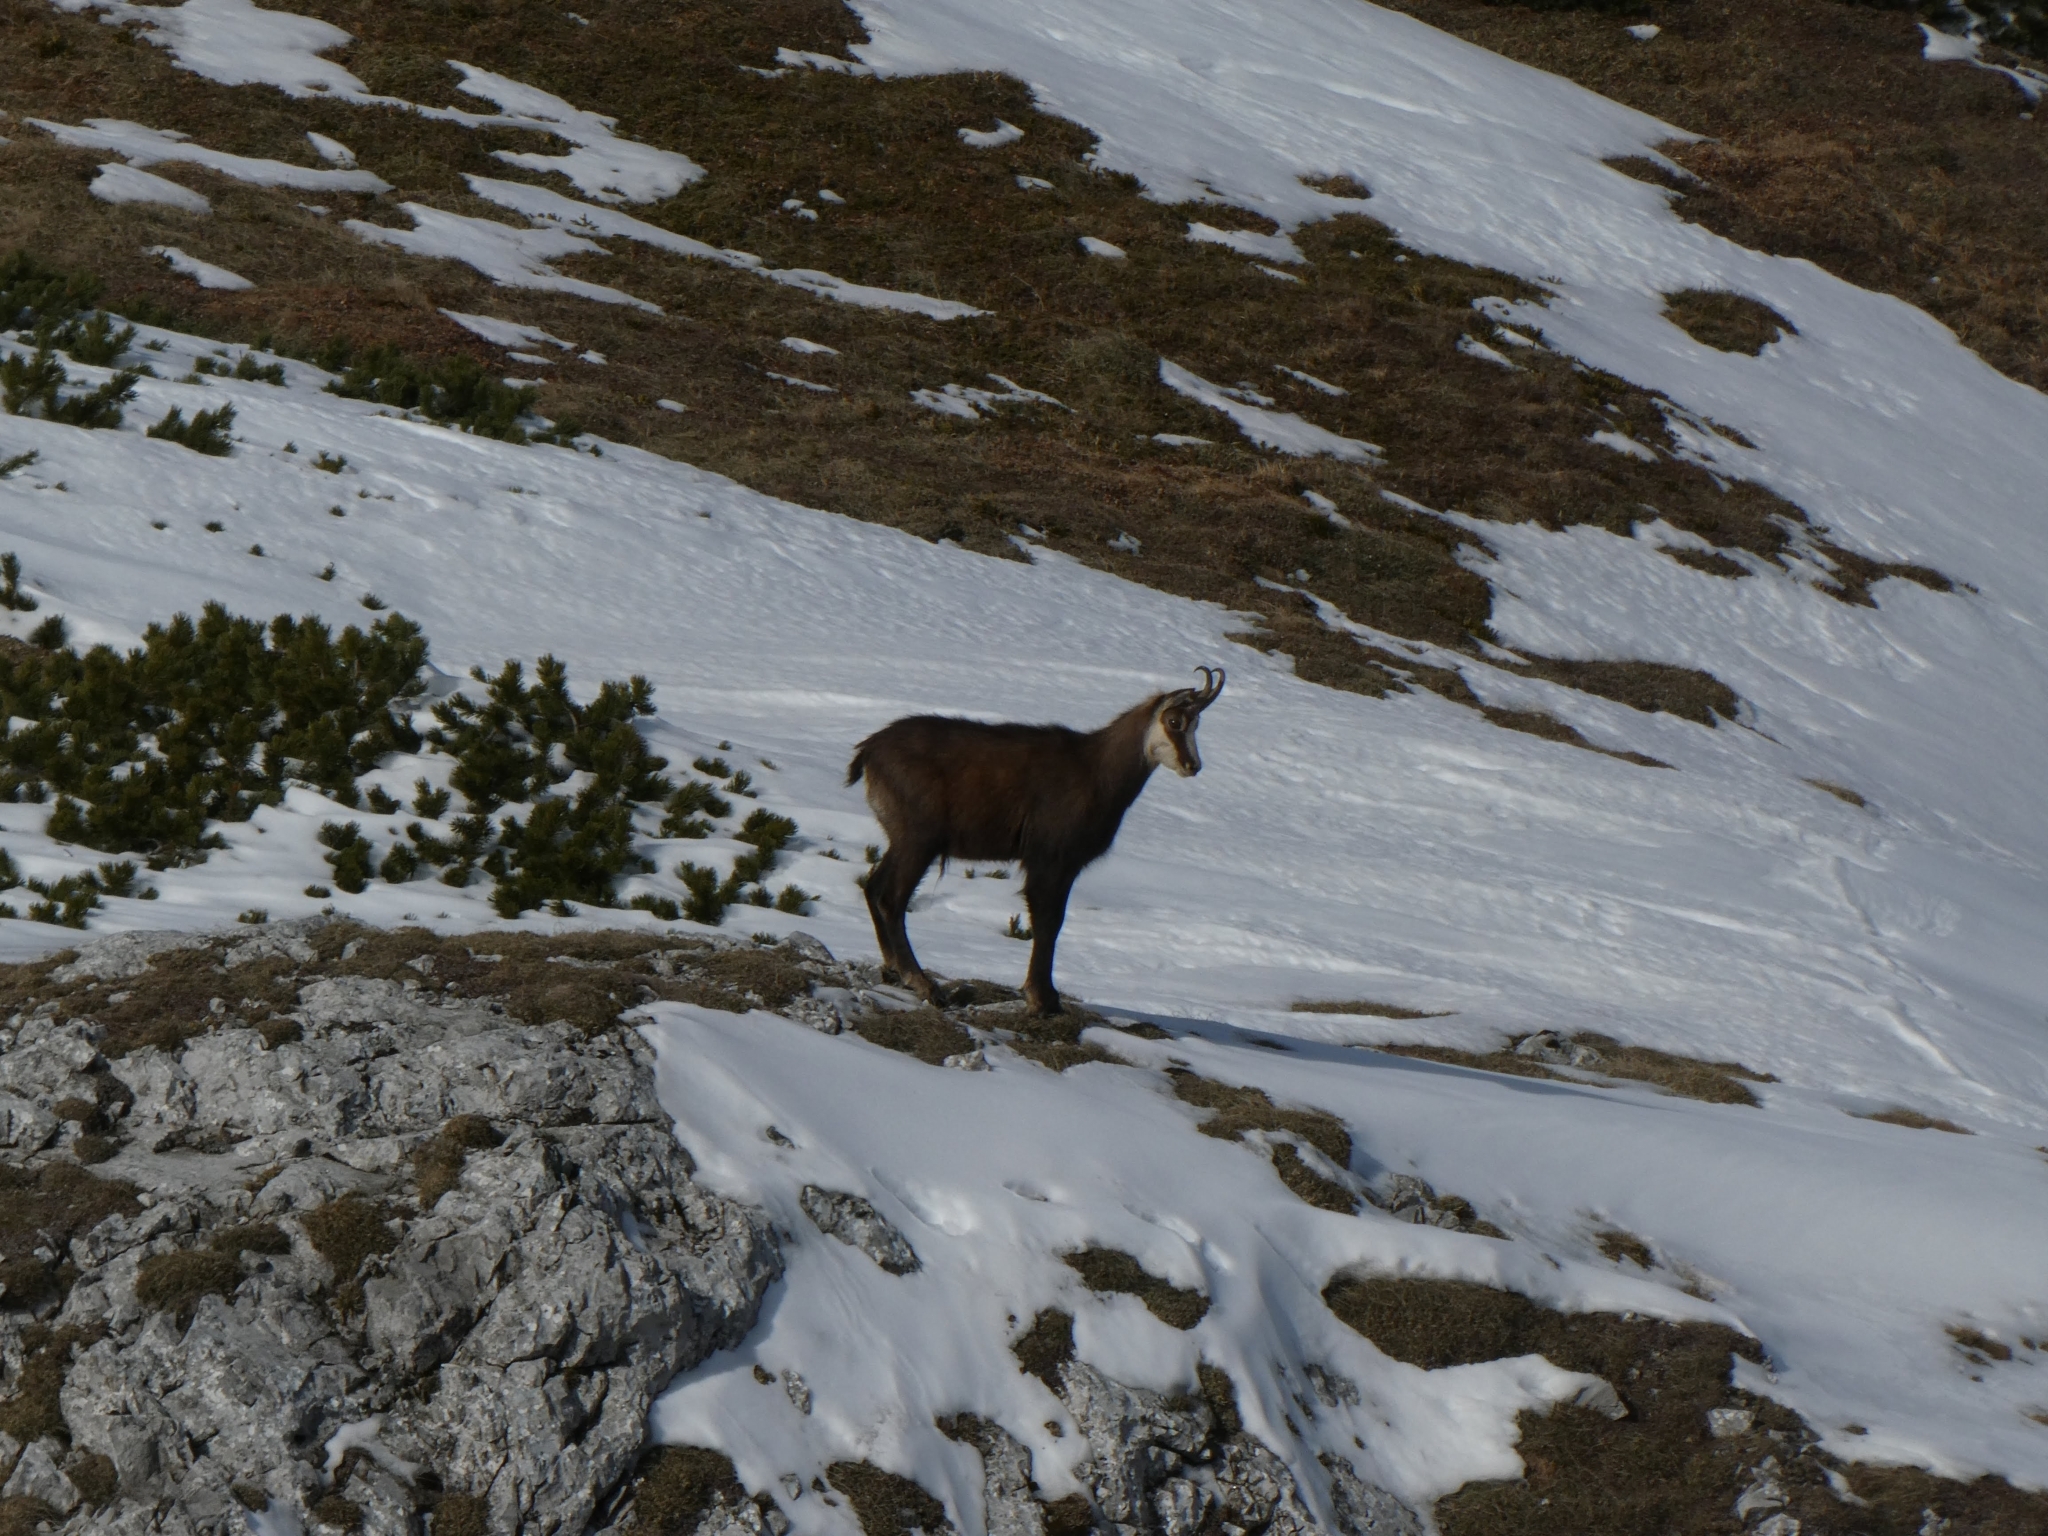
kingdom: Animalia
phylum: Chordata
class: Mammalia
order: Artiodactyla
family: Bovidae
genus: Rupicapra
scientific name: Rupicapra rupicapra
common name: Chamois
